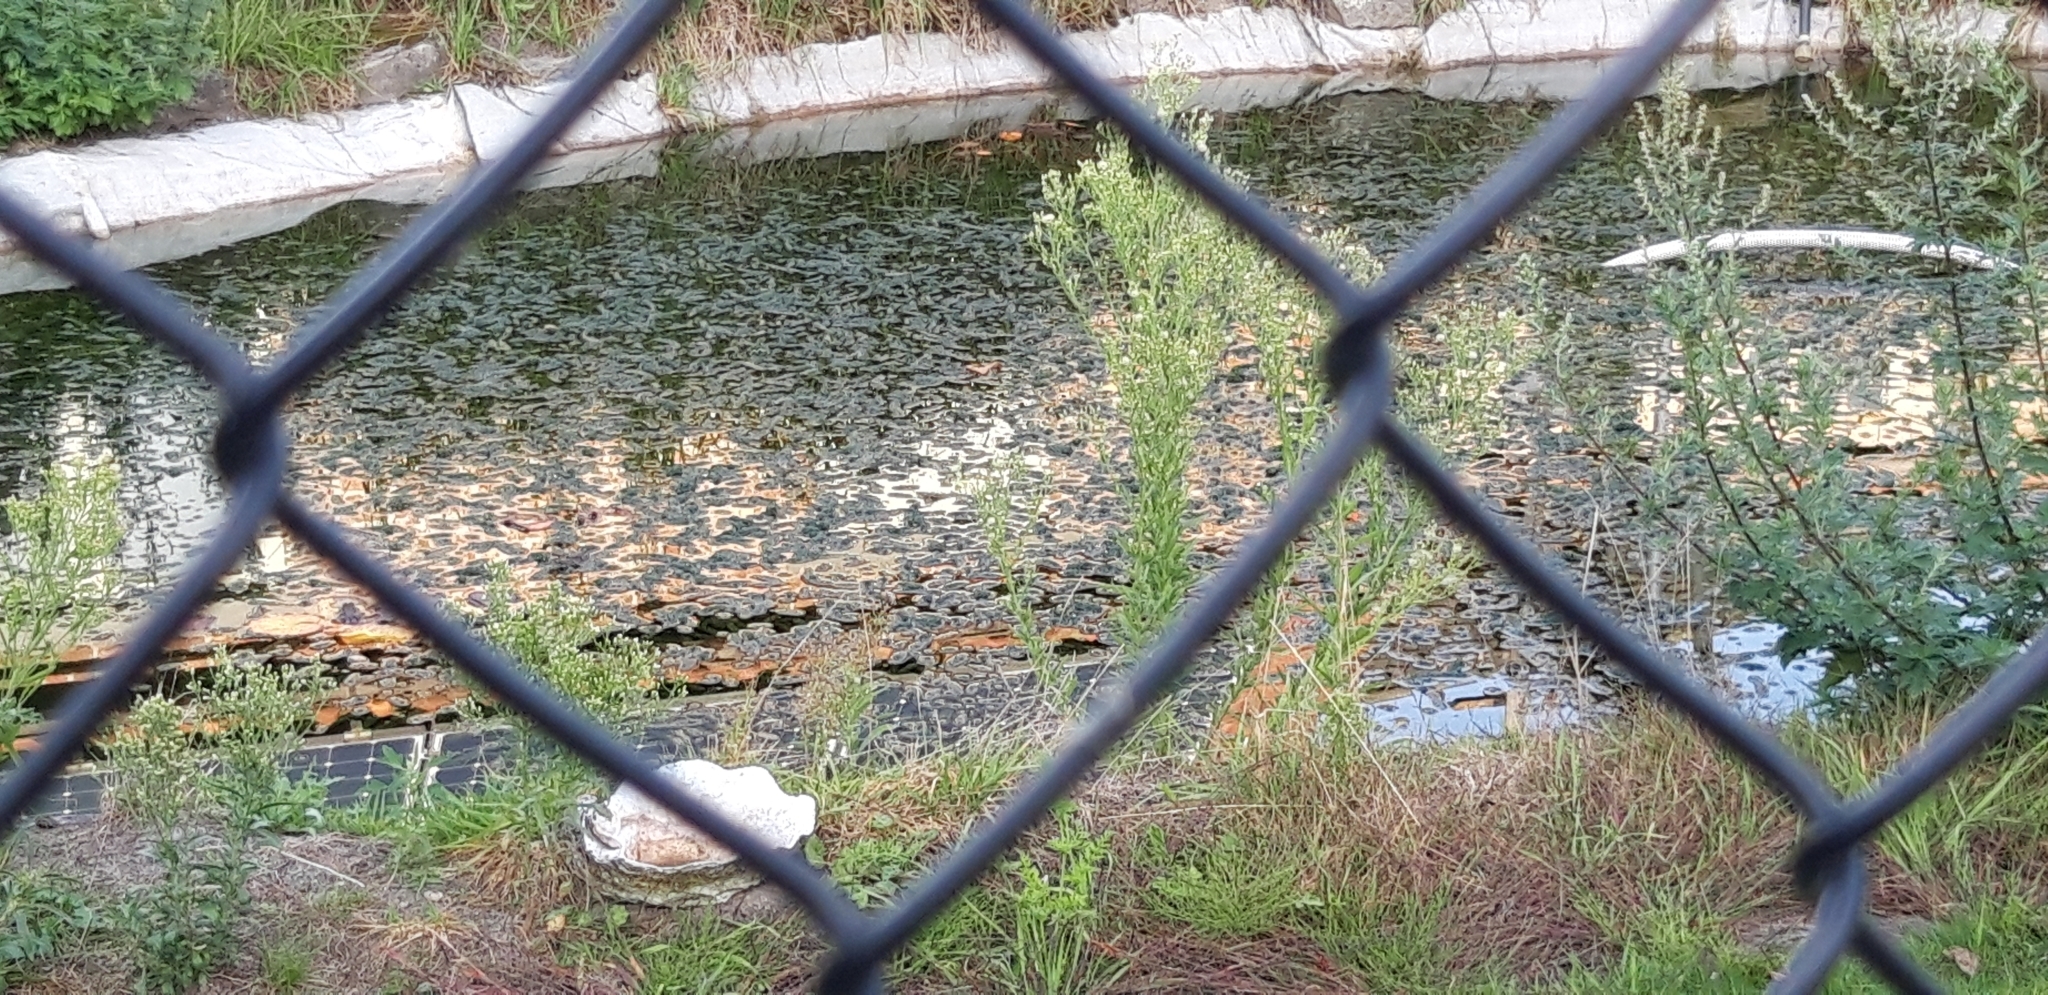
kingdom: Plantae
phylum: Tracheophyta
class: Liliopsida
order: Alismatales
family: Hydrocharitaceae
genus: Lagarosiphon
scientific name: Lagarosiphon major
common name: Curly waterweed
